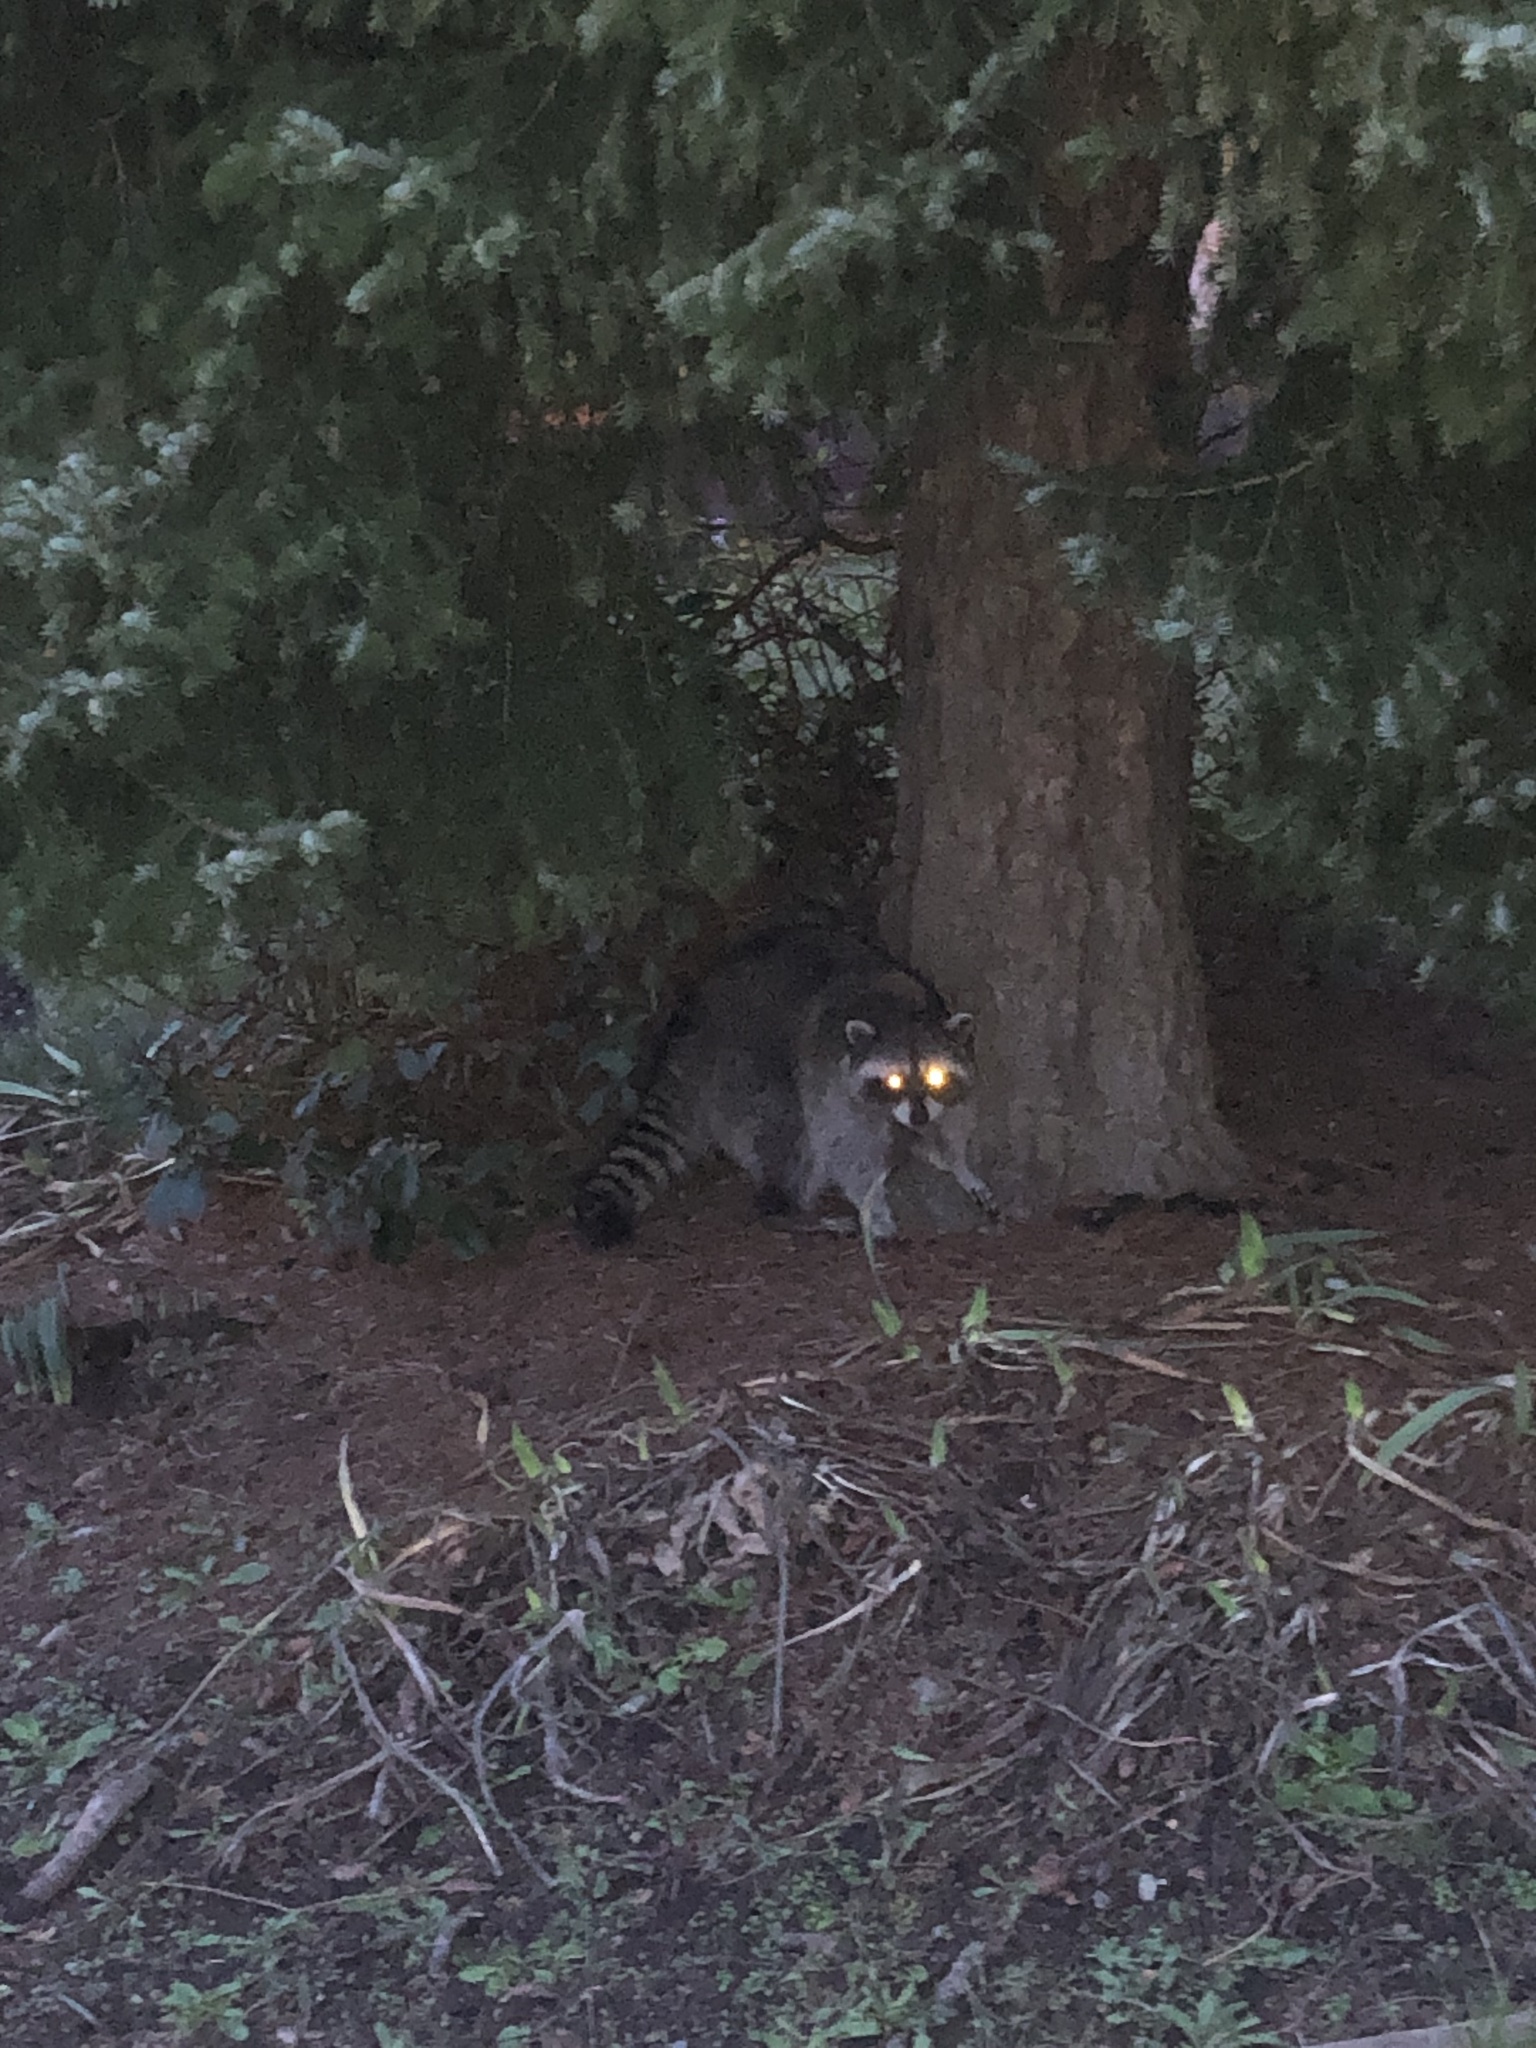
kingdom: Animalia
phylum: Chordata
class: Mammalia
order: Carnivora
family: Procyonidae
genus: Procyon
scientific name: Procyon lotor
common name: Raccoon
